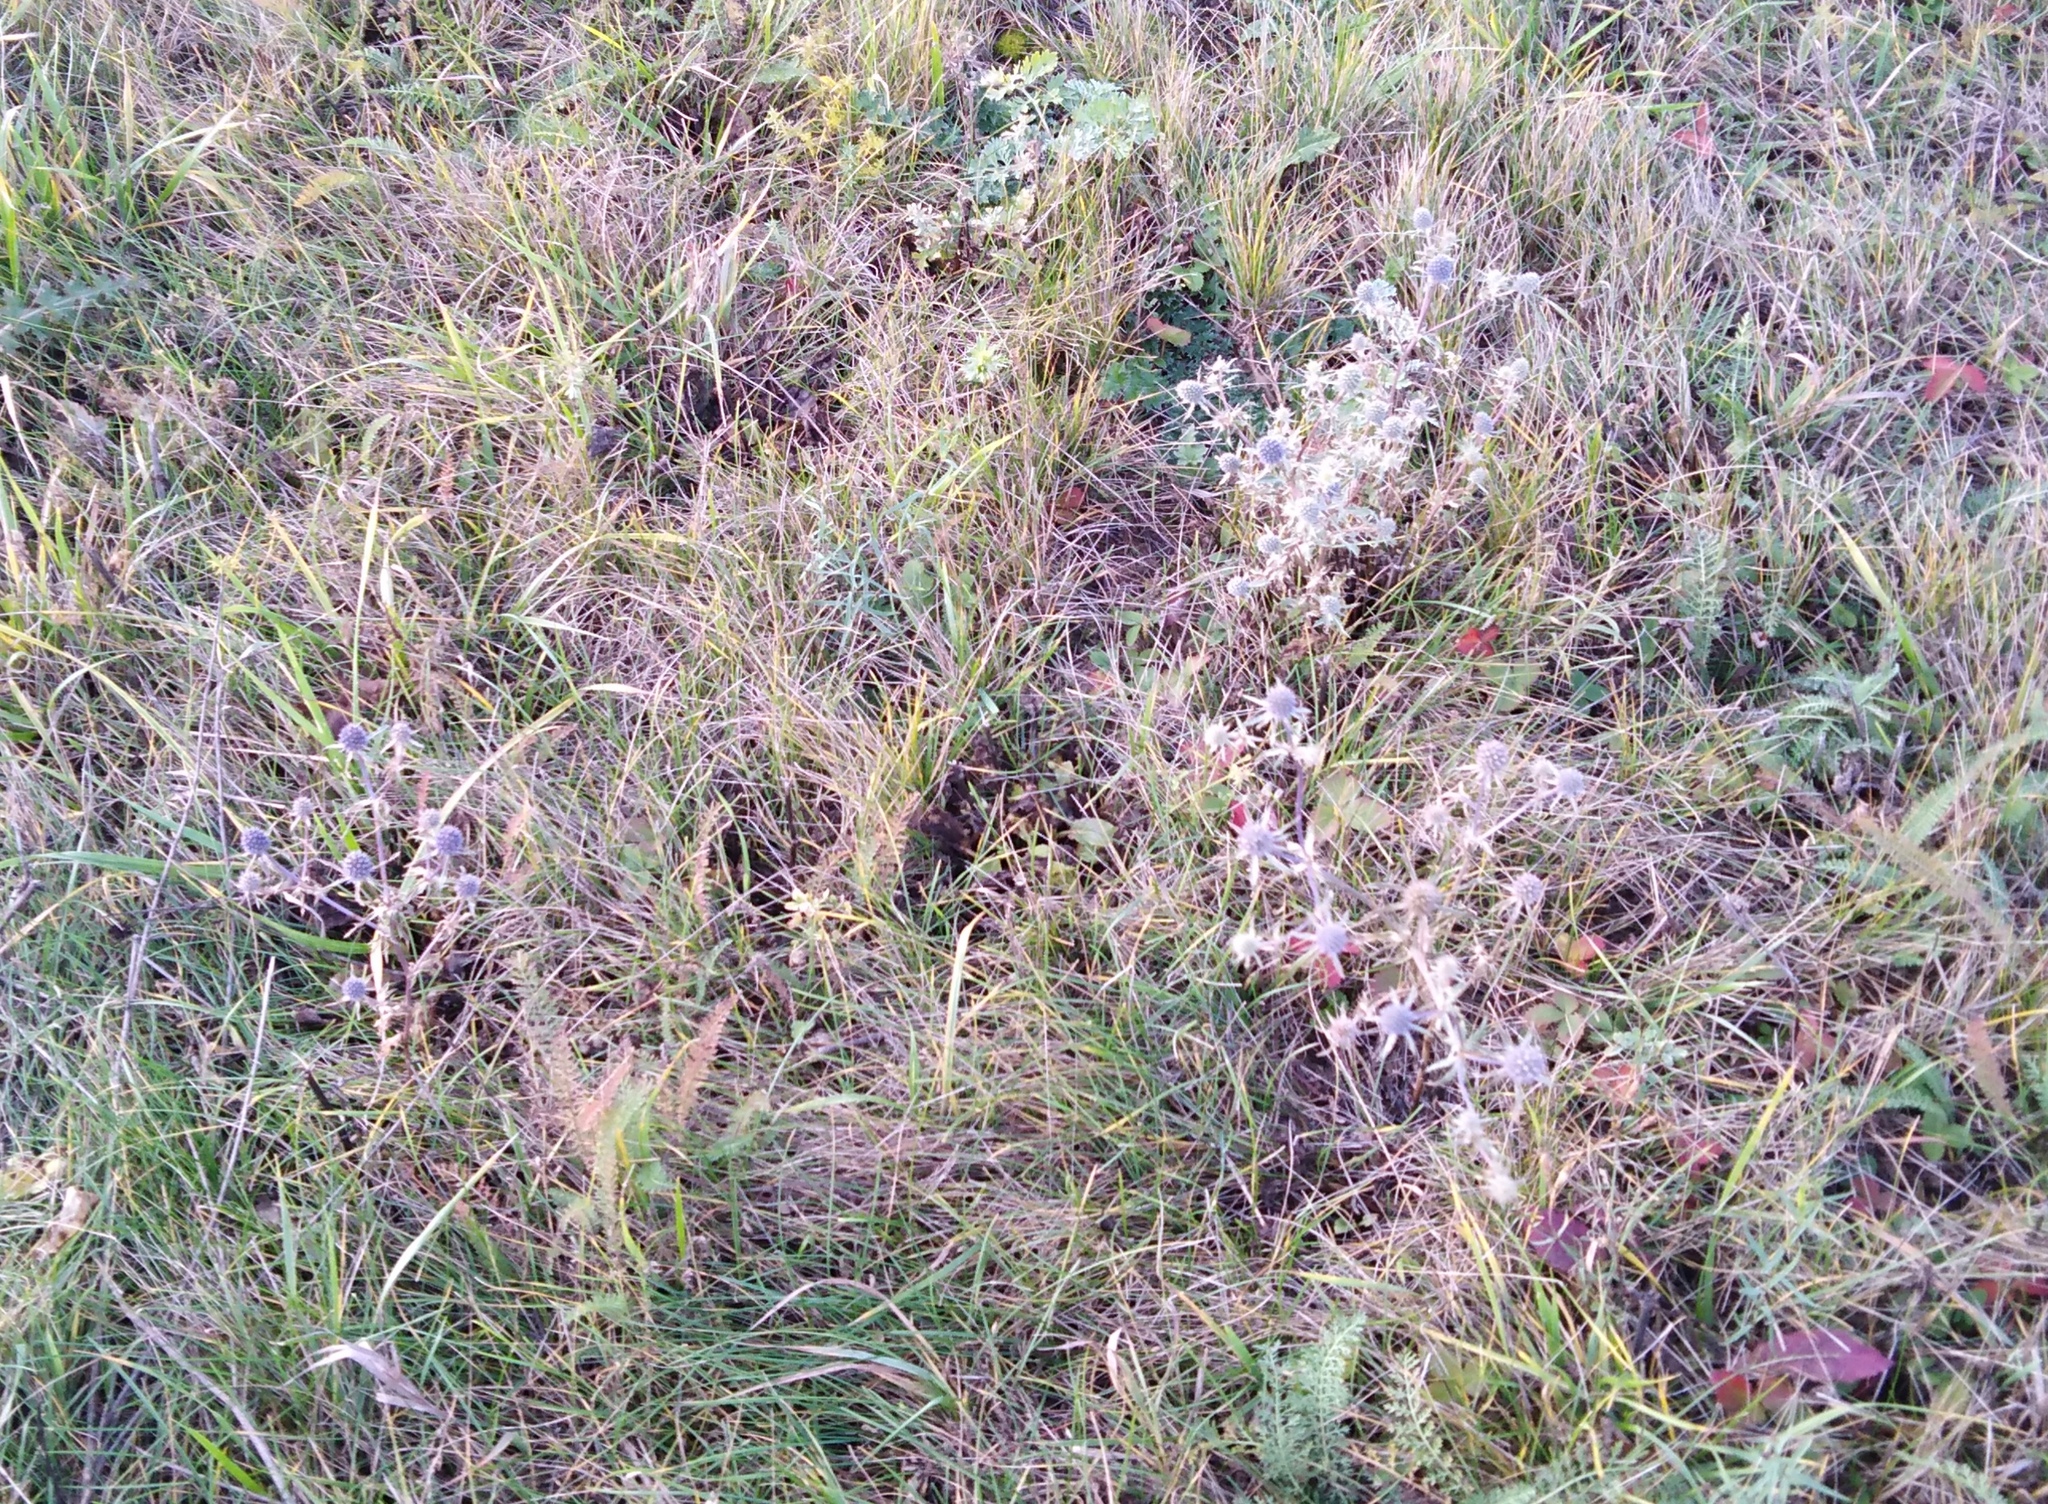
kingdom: Plantae
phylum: Tracheophyta
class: Magnoliopsida
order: Apiales
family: Apiaceae
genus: Eryngium
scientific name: Eryngium planum
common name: Blue eryngo
